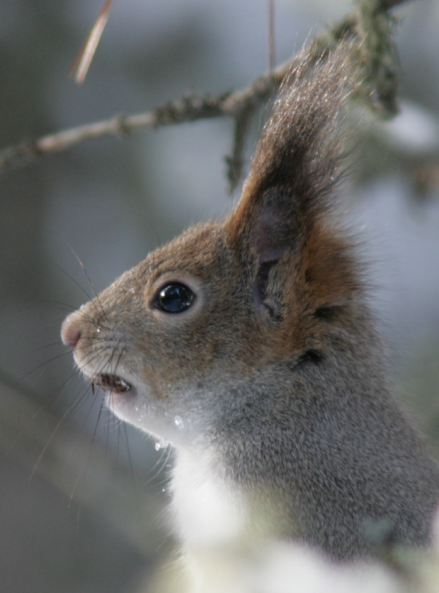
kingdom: Animalia
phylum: Chordata
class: Mammalia
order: Rodentia
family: Sciuridae
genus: Sciurus
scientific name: Sciurus vulgaris
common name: Eurasian red squirrel
